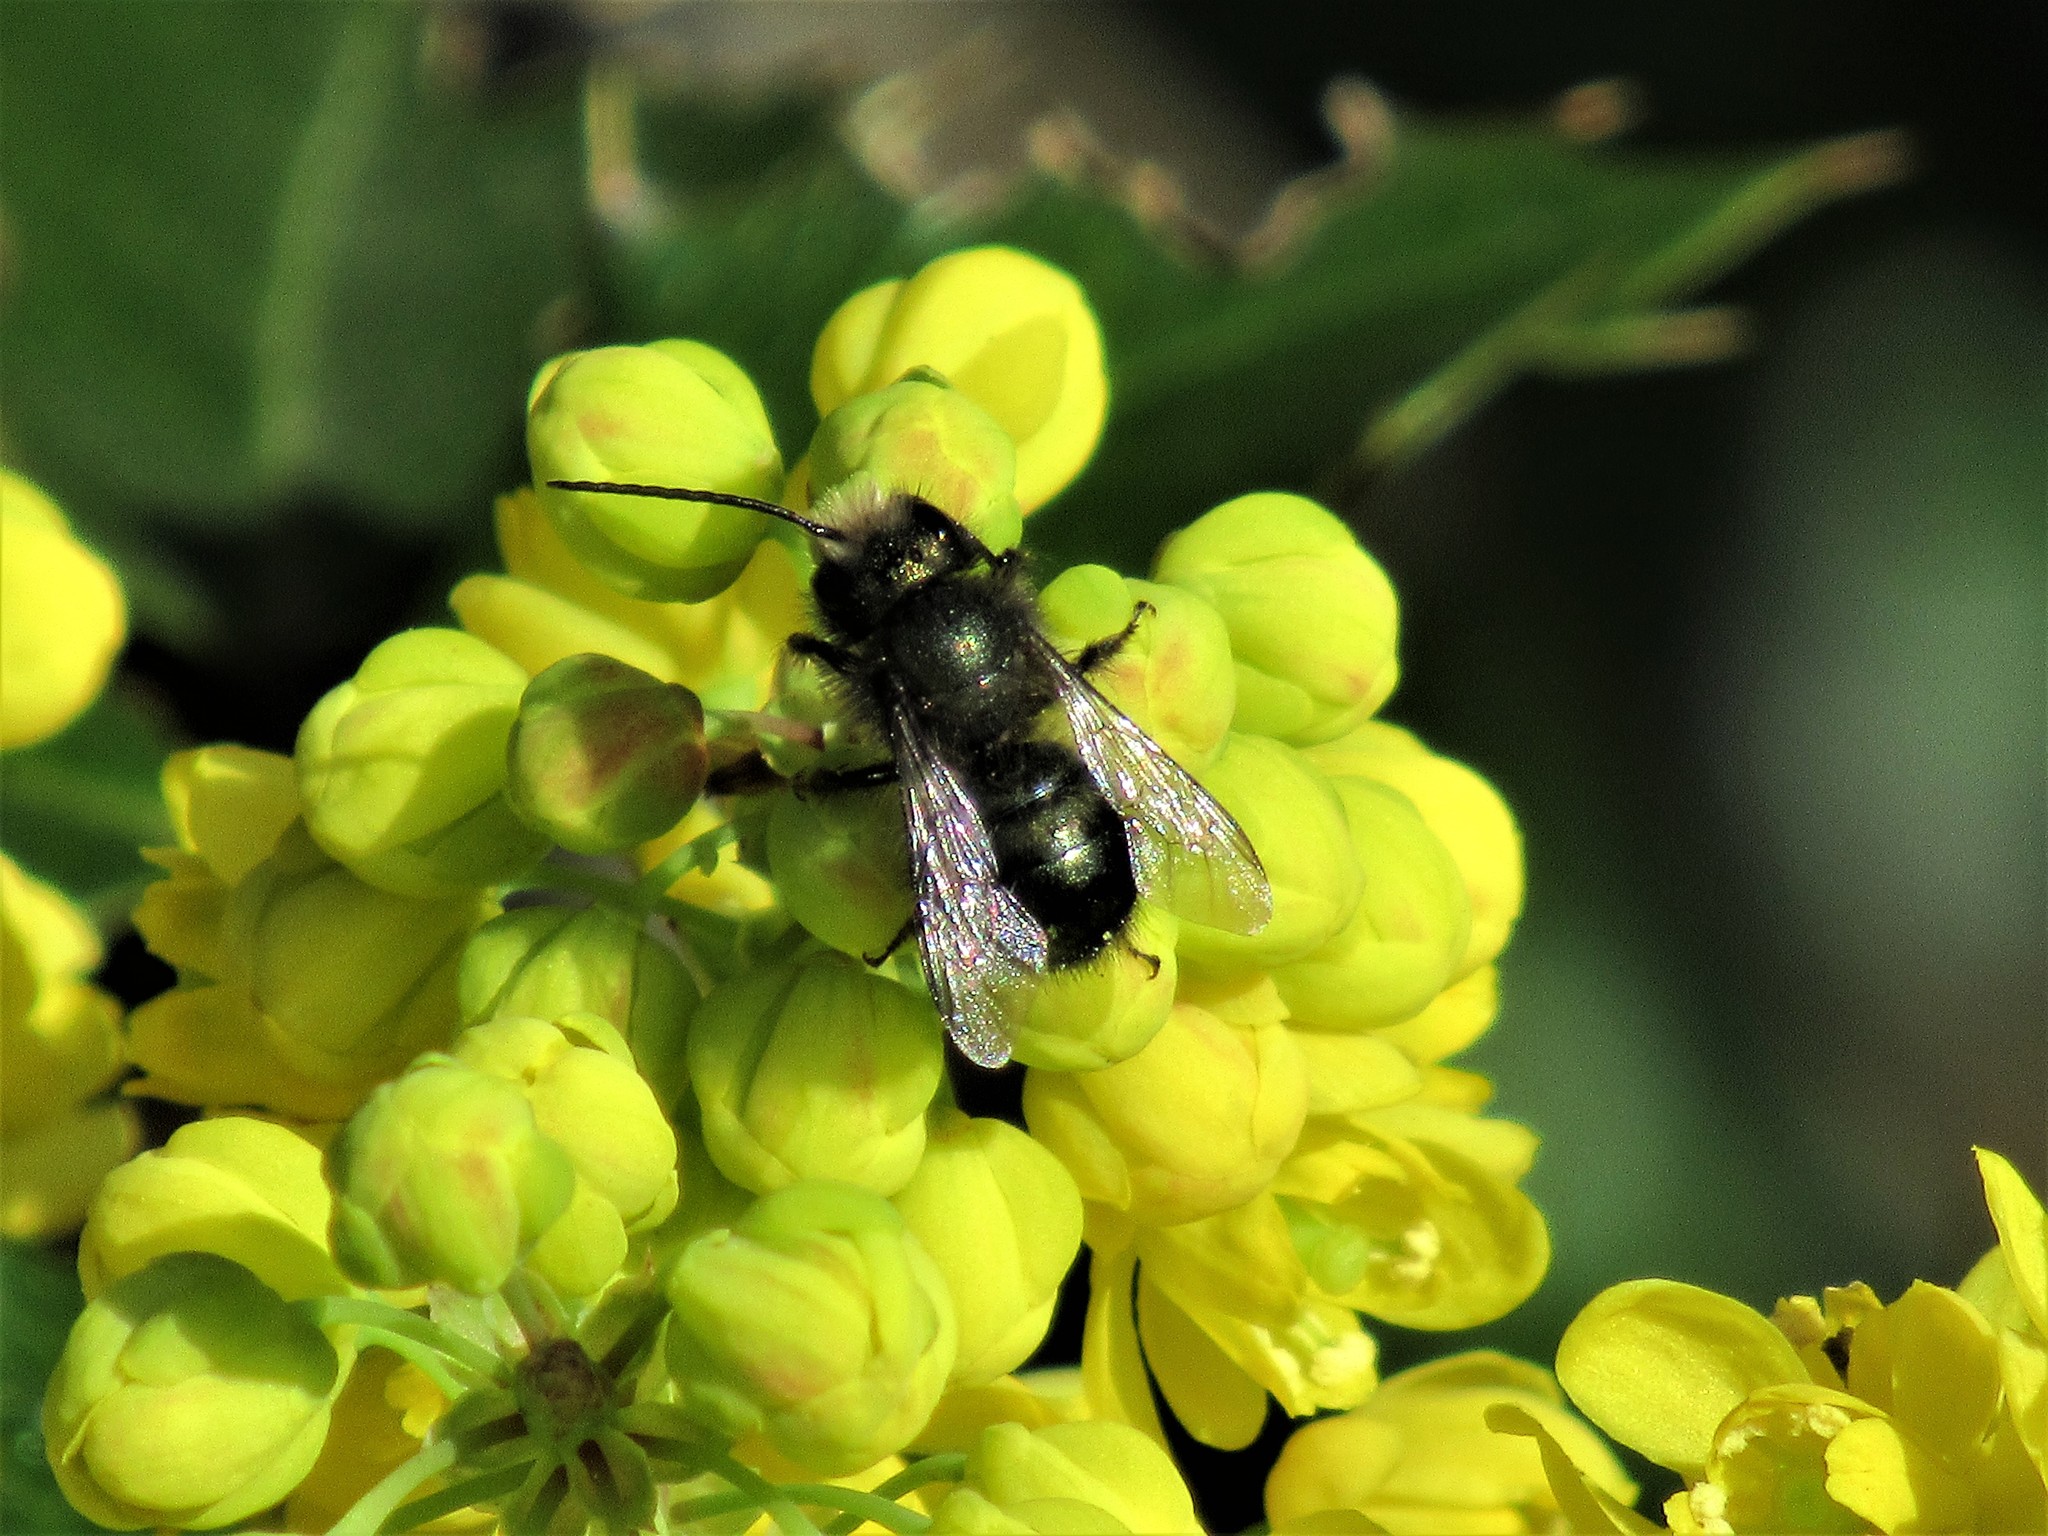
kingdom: Animalia
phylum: Arthropoda
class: Insecta
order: Hymenoptera
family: Megachilidae
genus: Osmia
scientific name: Osmia lignaria
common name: Blue orchard bee
